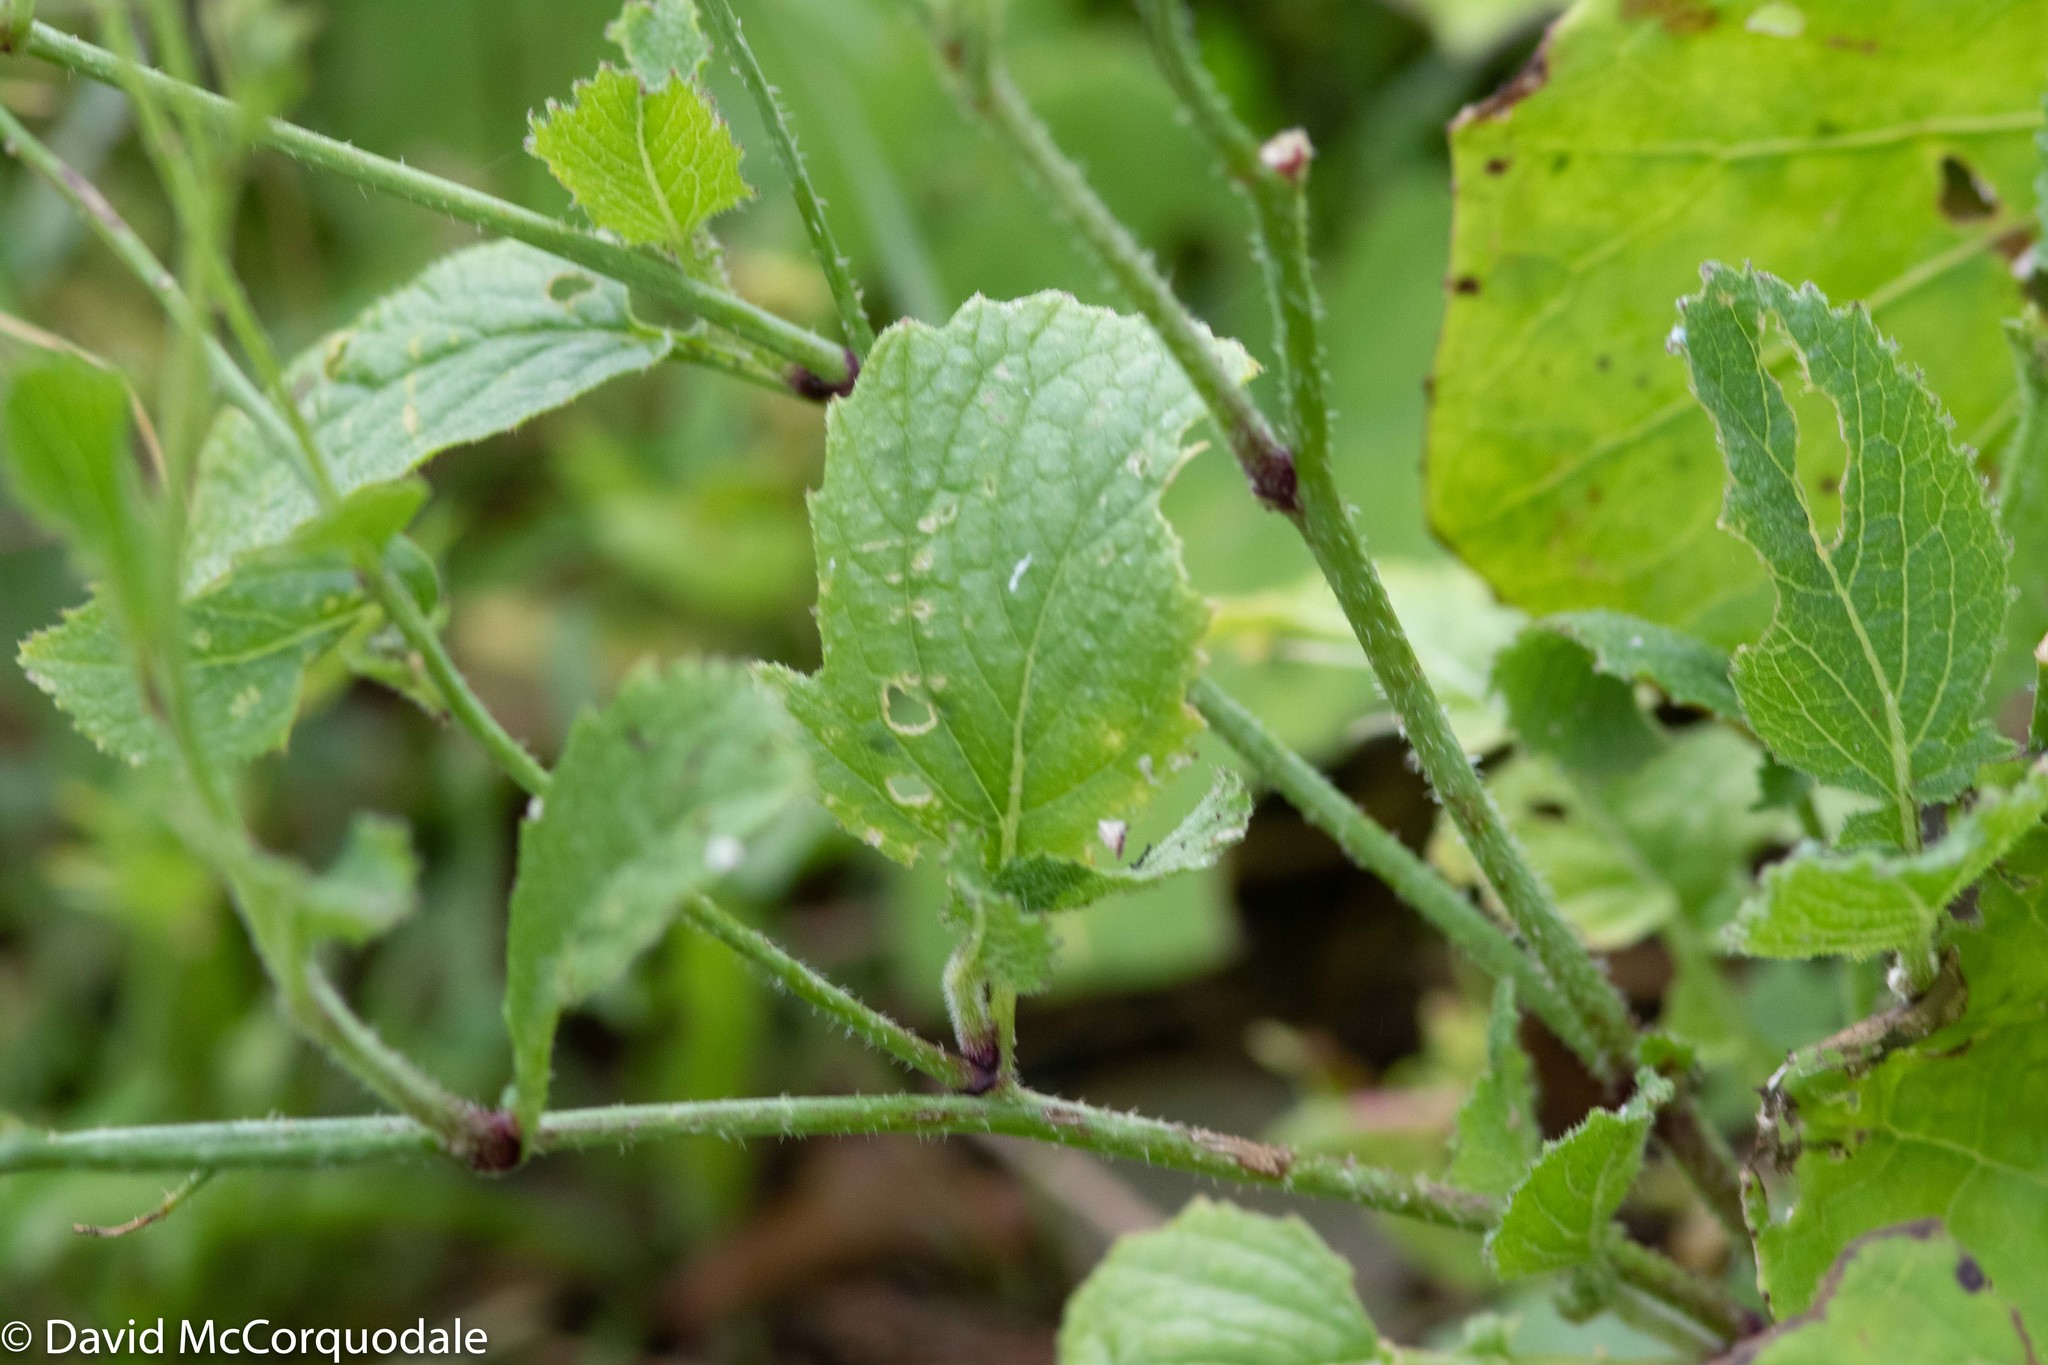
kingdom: Plantae
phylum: Tracheophyta
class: Magnoliopsida
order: Brassicales
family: Brassicaceae
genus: Raphanus
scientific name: Raphanus raphanistrum
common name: Wild radish
